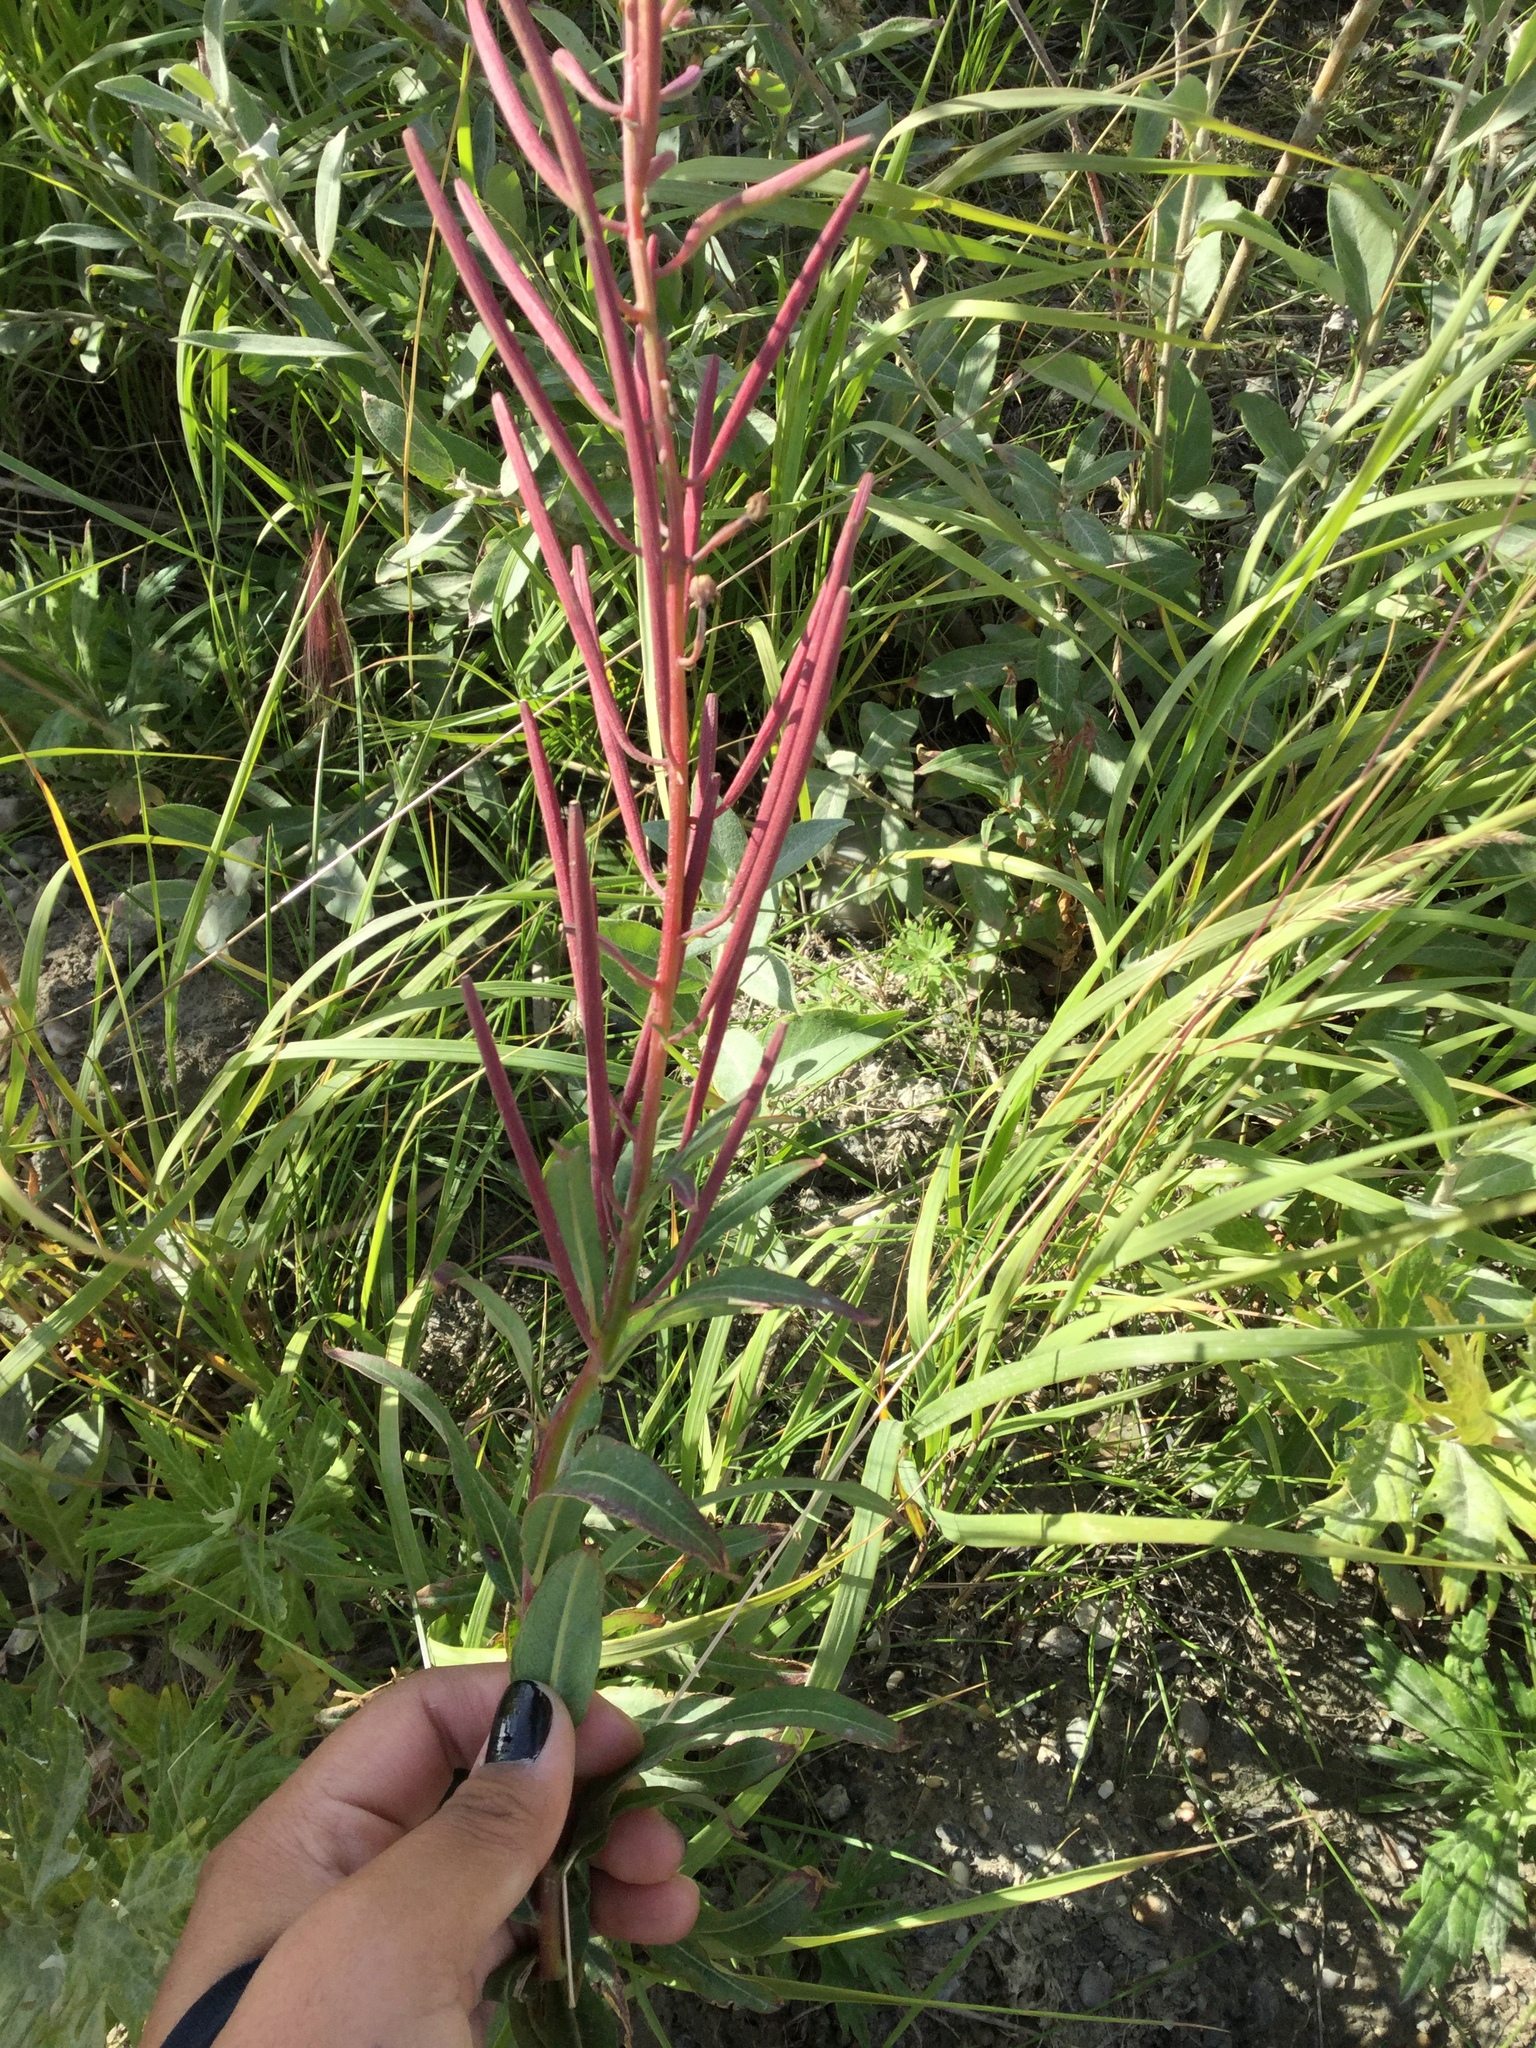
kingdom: Plantae
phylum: Tracheophyta
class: Magnoliopsida
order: Myrtales
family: Onagraceae
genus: Chamaenerion
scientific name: Chamaenerion angustifolium
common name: Fireweed
